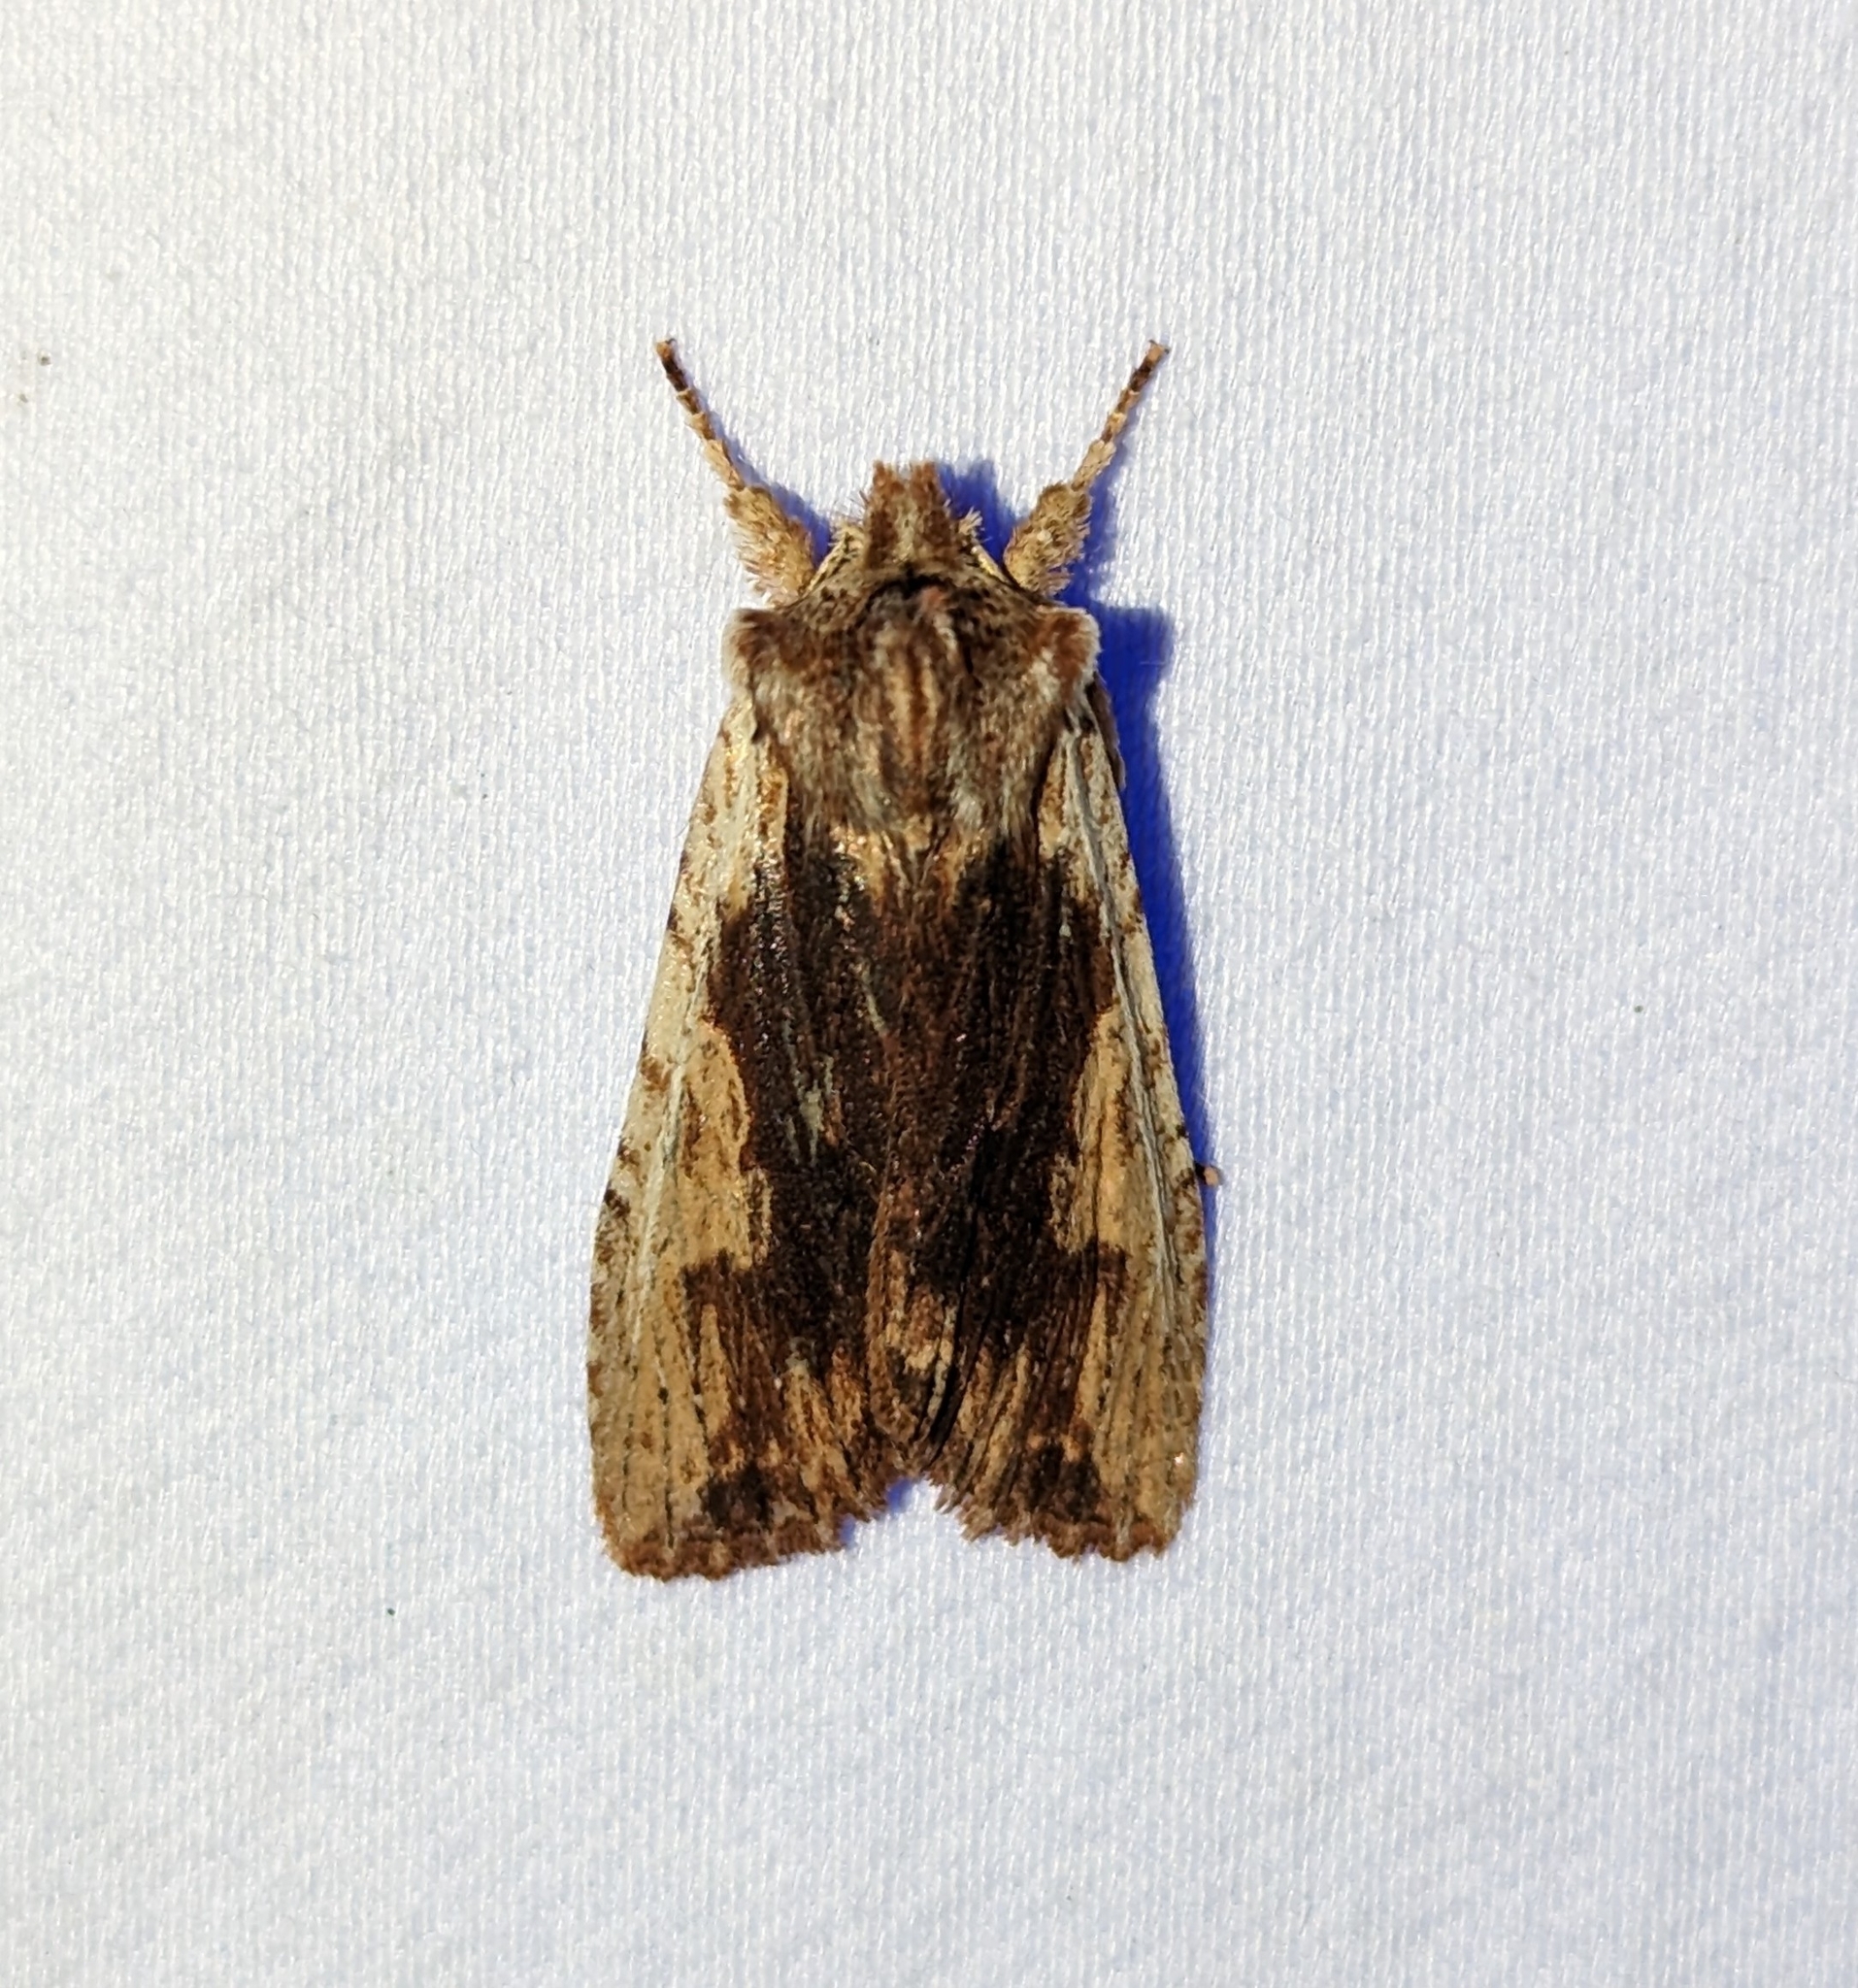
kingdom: Animalia
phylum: Arthropoda
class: Insecta
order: Lepidoptera
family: Noctuidae
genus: Lithophane
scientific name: Lithophane petulca
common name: Wanton pinion
